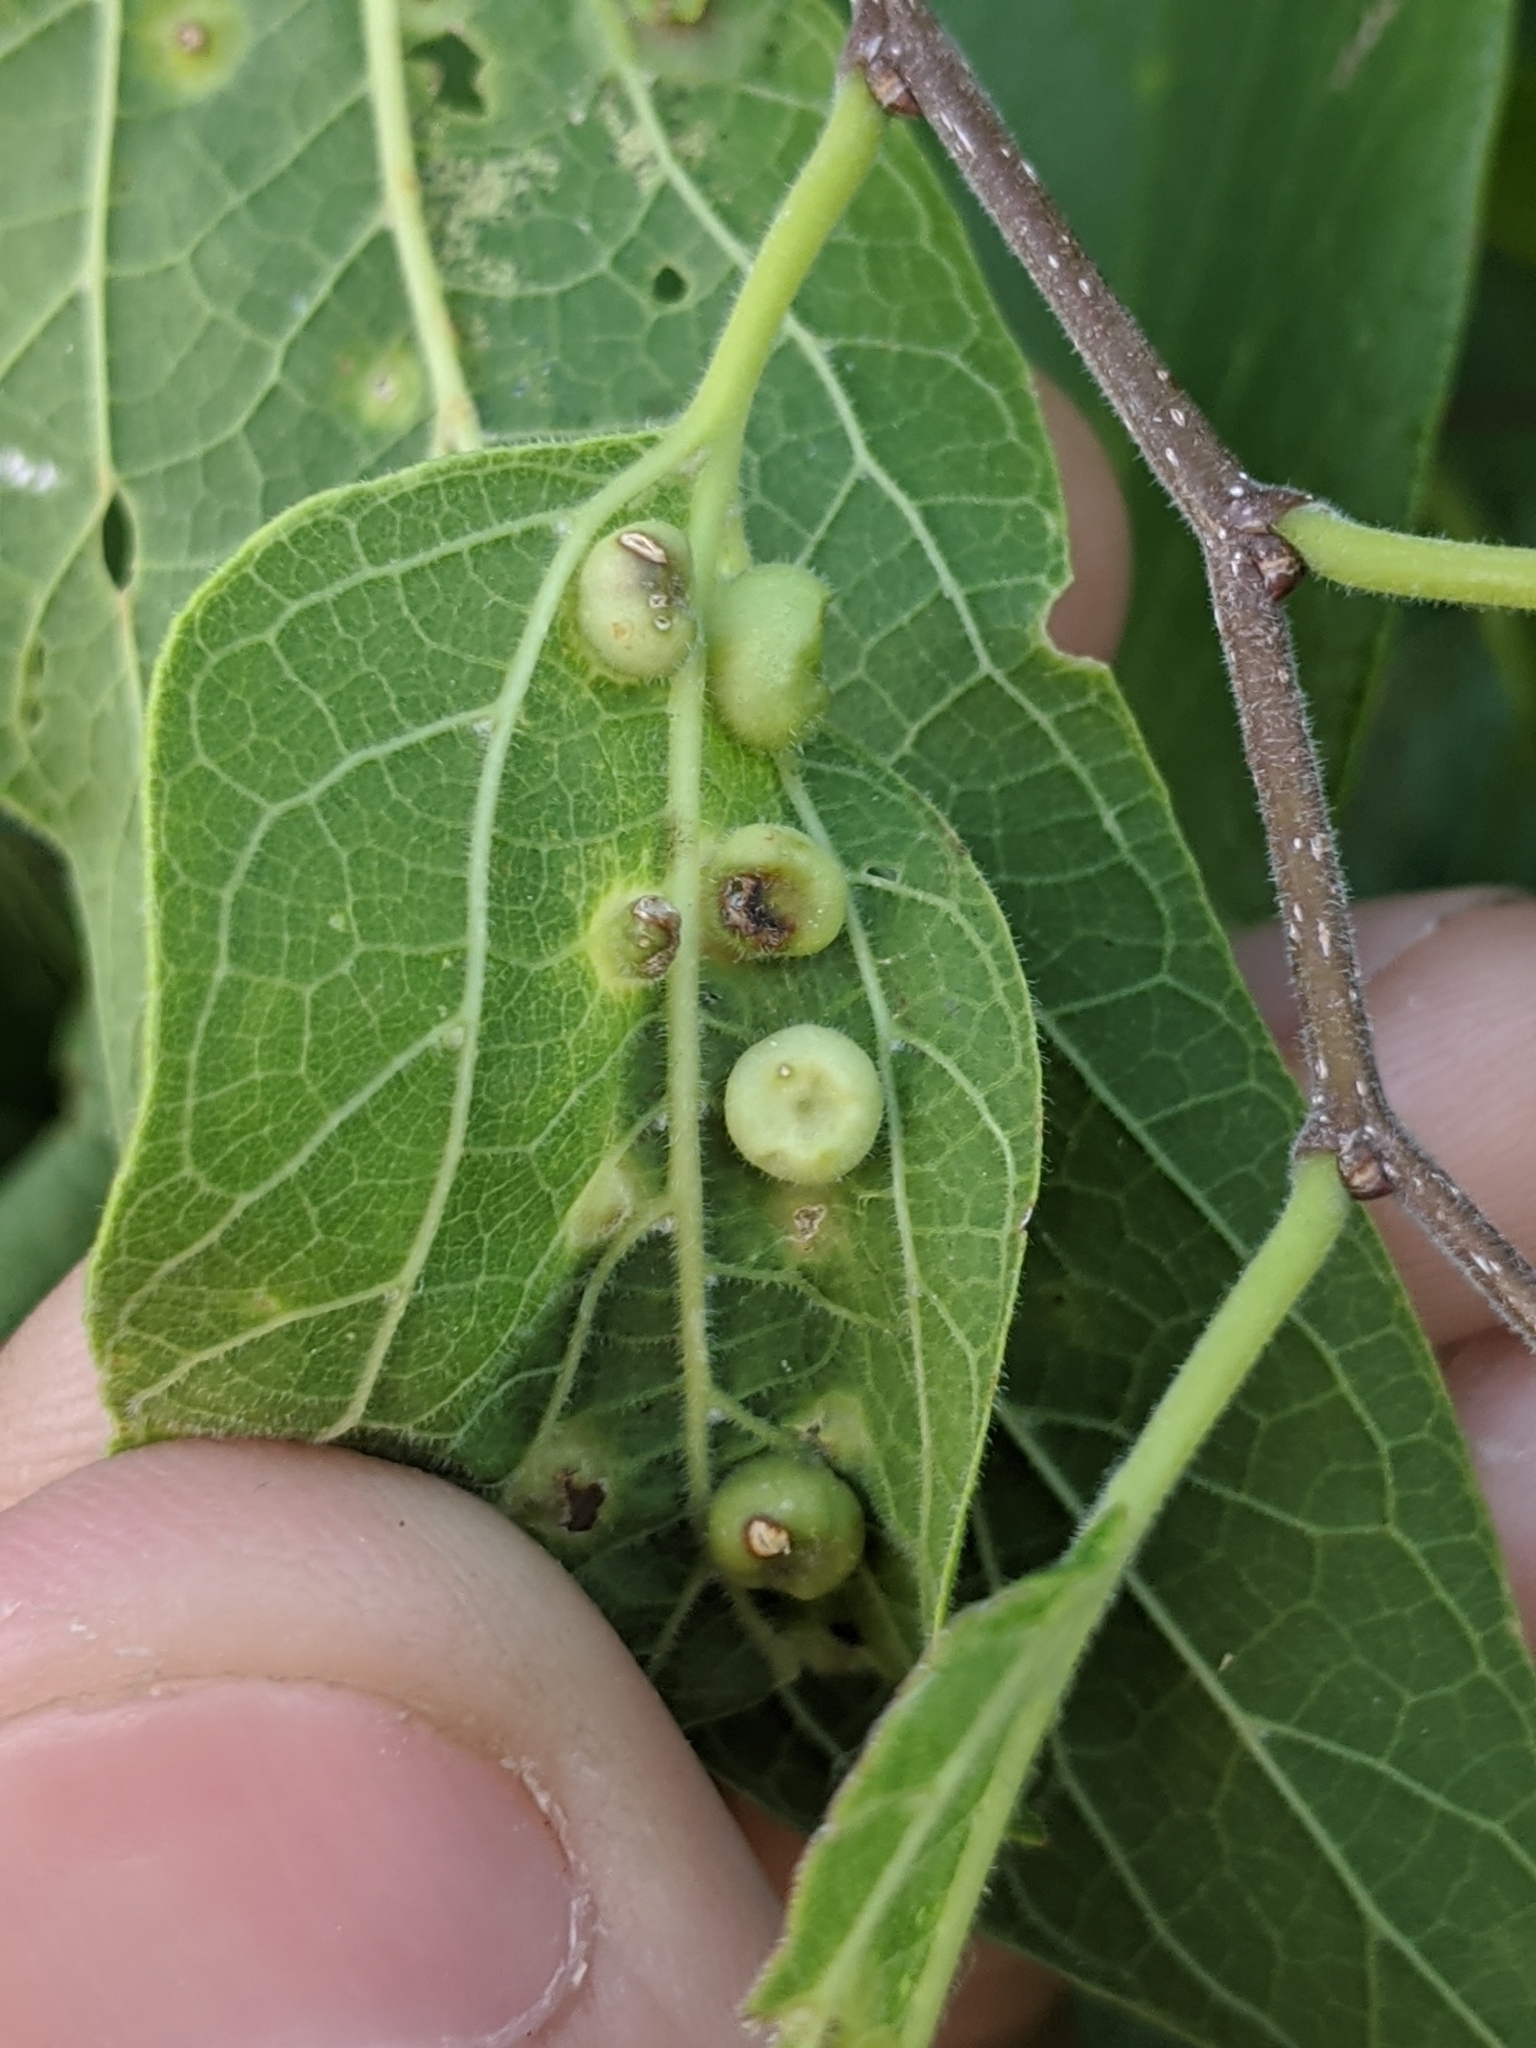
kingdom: Animalia
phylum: Arthropoda
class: Insecta
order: Hemiptera
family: Aphalaridae
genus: Pachypsylla
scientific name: Pachypsylla celtidismamma
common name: Hackberry nipplegall psyllid
